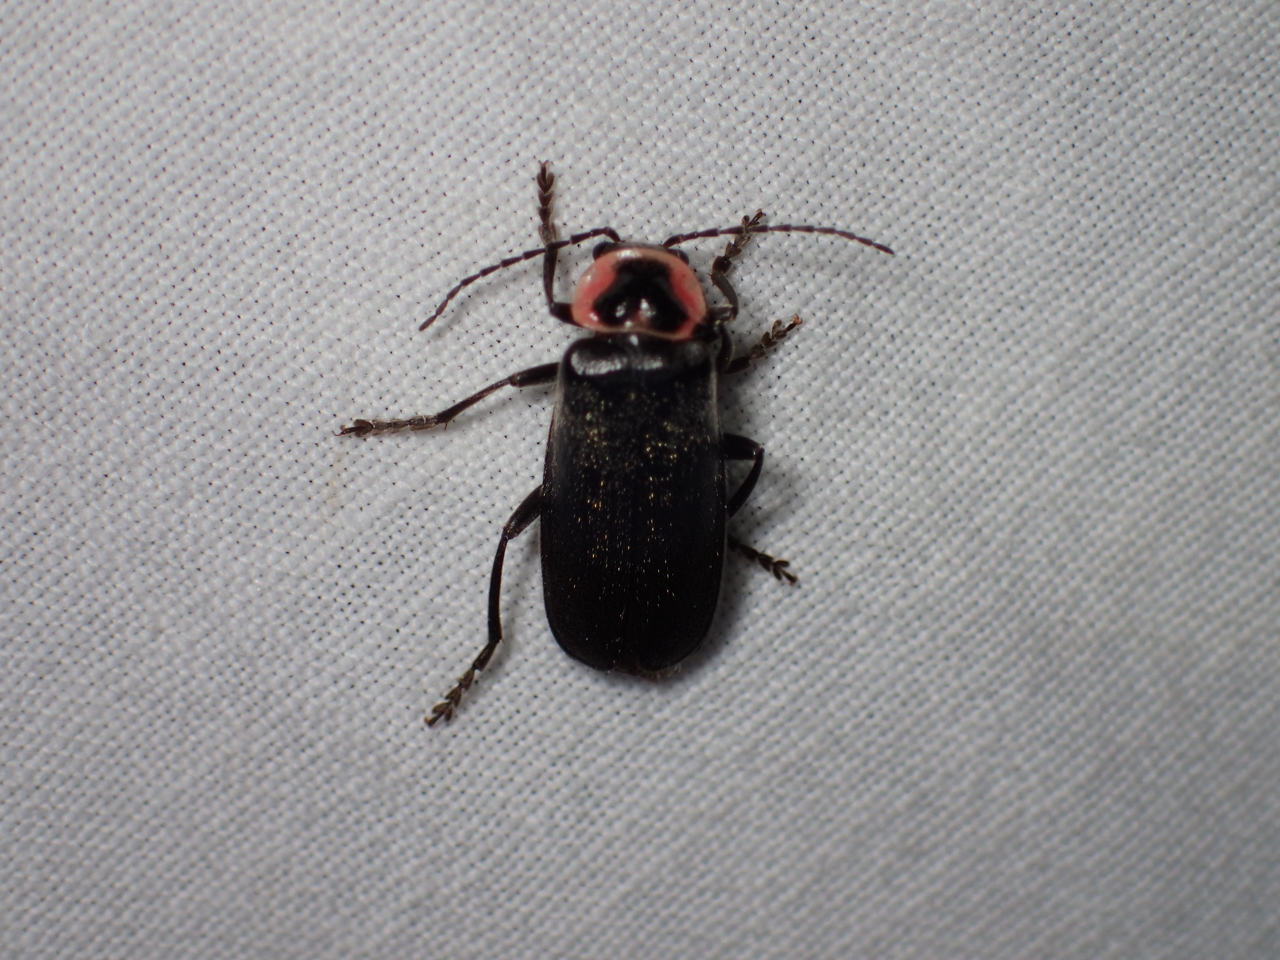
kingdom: Animalia
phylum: Arthropoda
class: Insecta
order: Coleoptera
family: Cantharidae
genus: Atalantycha
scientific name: Atalantycha neglecta
